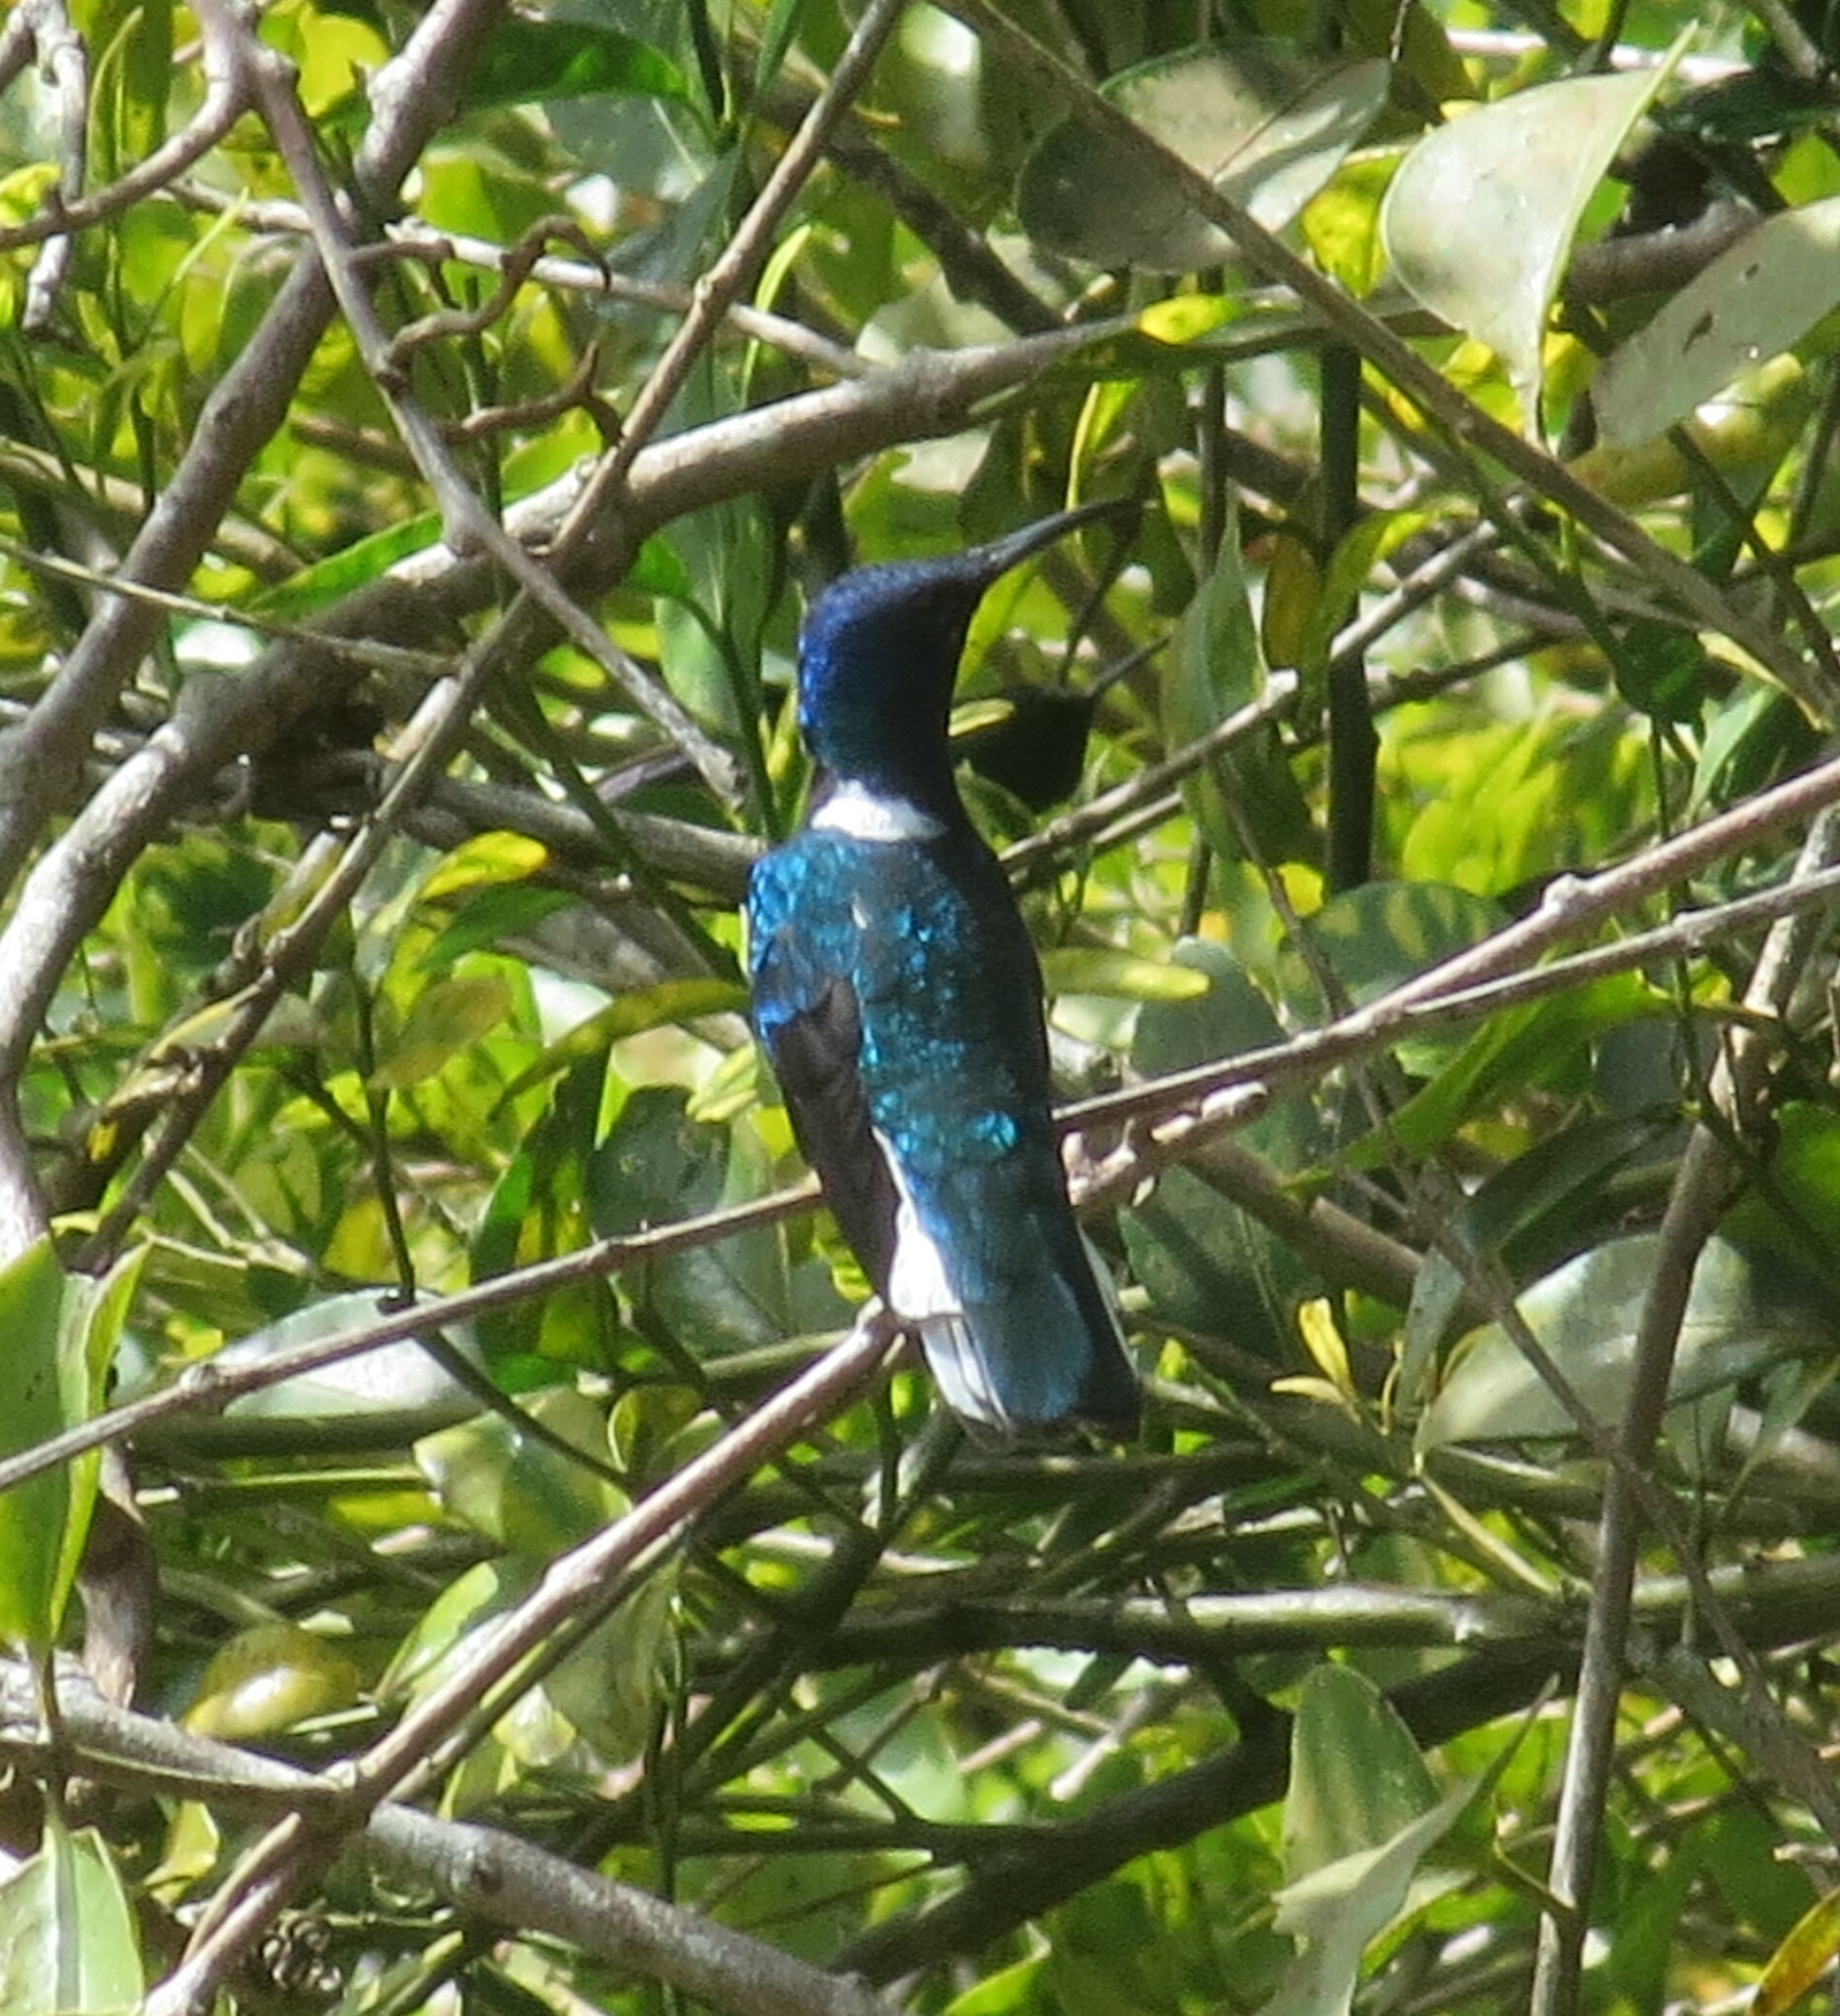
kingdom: Animalia
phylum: Chordata
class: Aves
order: Apodiformes
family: Trochilidae
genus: Florisuga
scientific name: Florisuga mellivora
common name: White-necked jacobin
